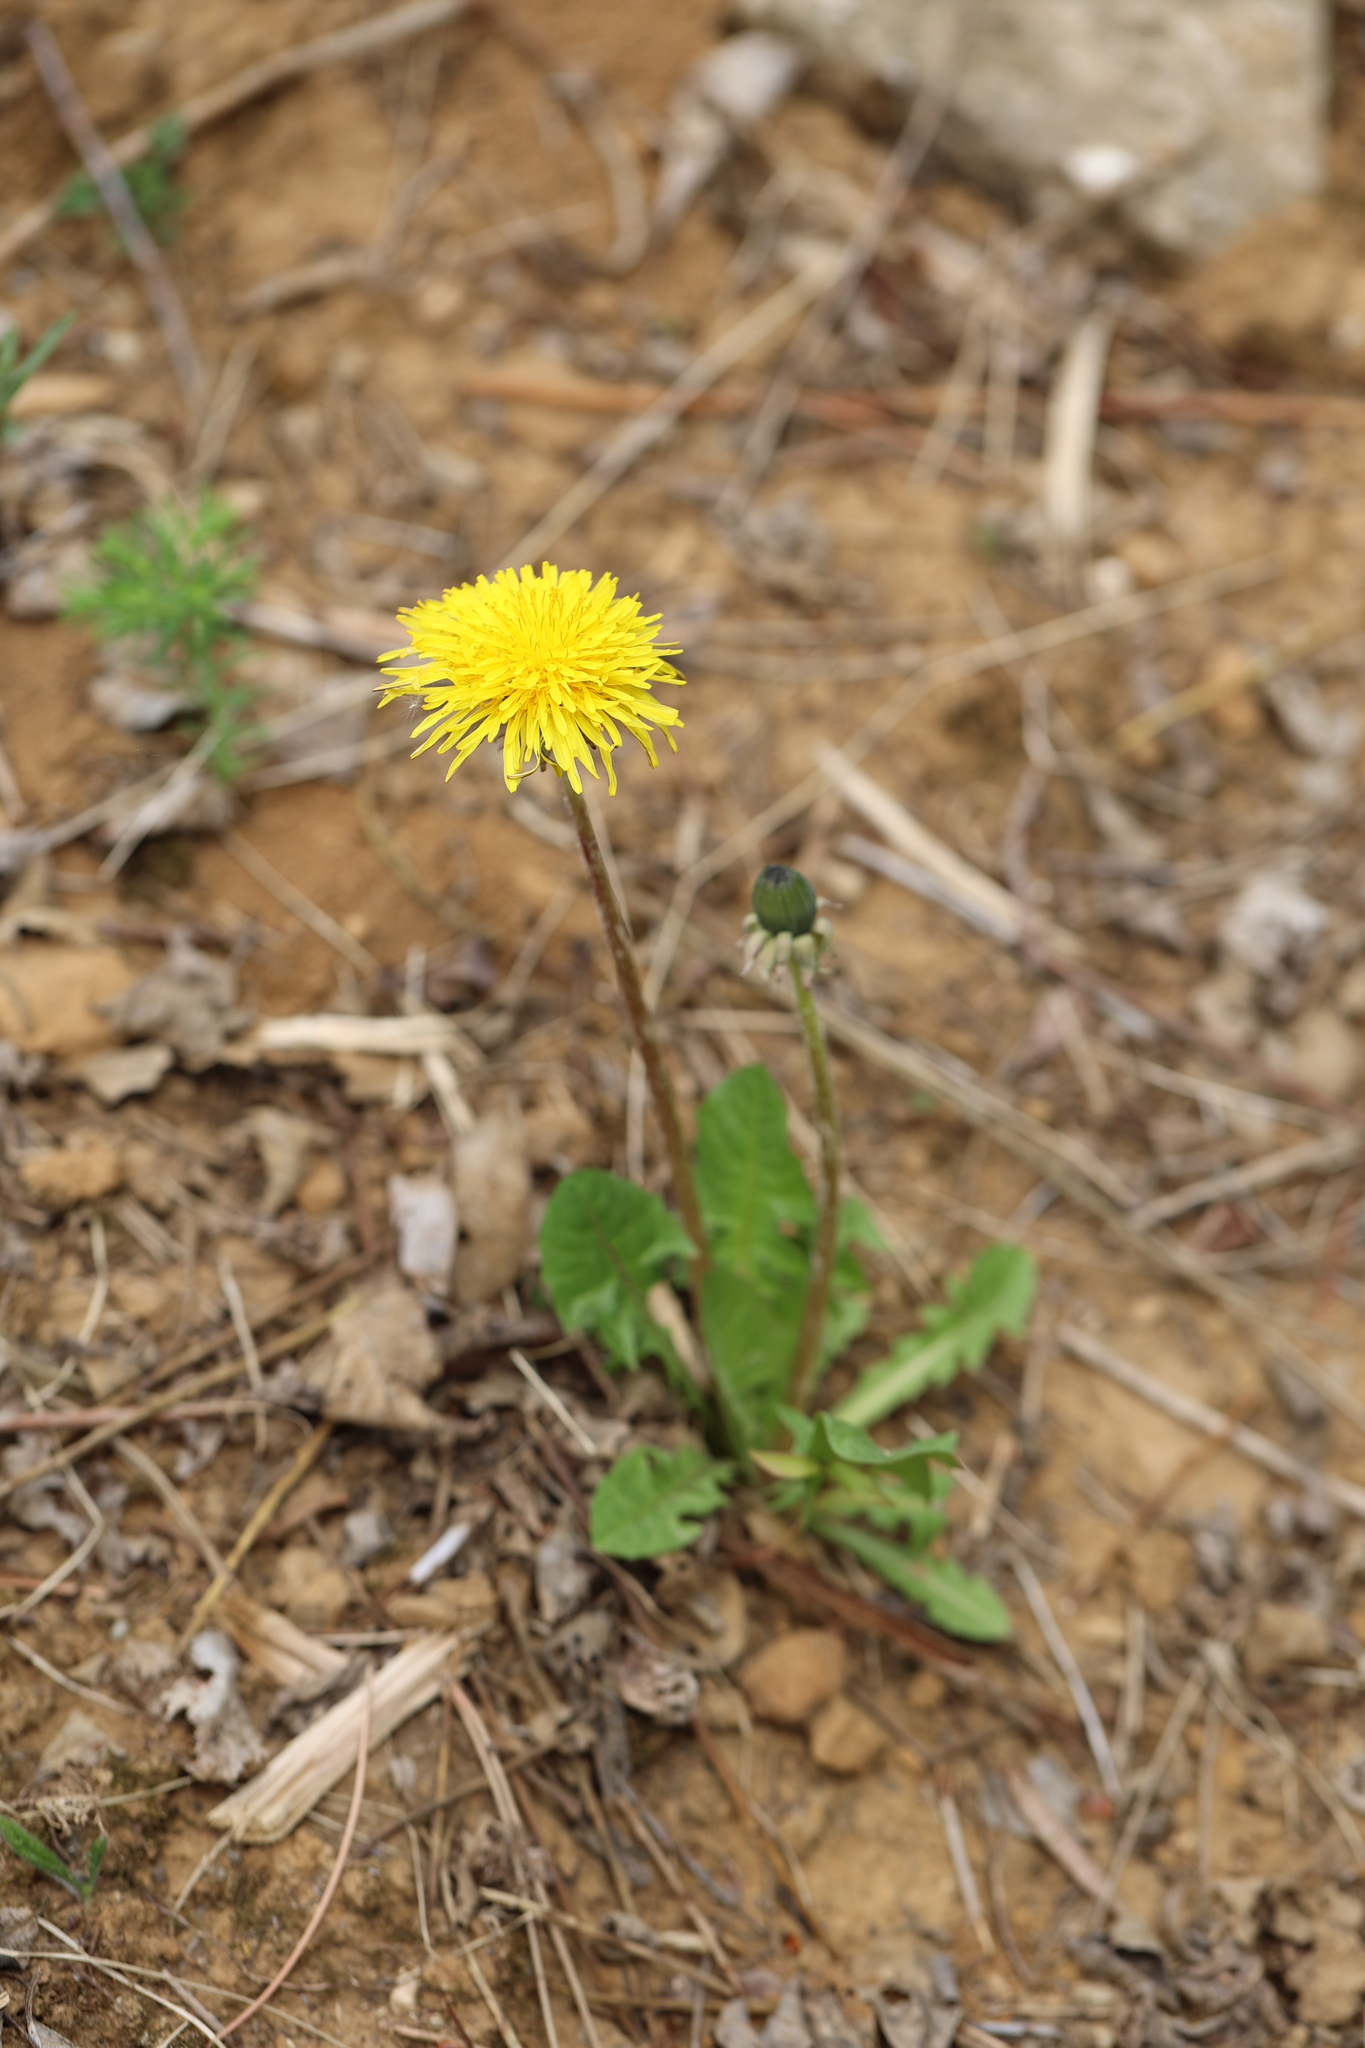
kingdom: Plantae
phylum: Tracheophyta
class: Magnoliopsida
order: Asterales
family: Asteraceae
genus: Taraxacum
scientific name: Taraxacum officinale
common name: Common dandelion
